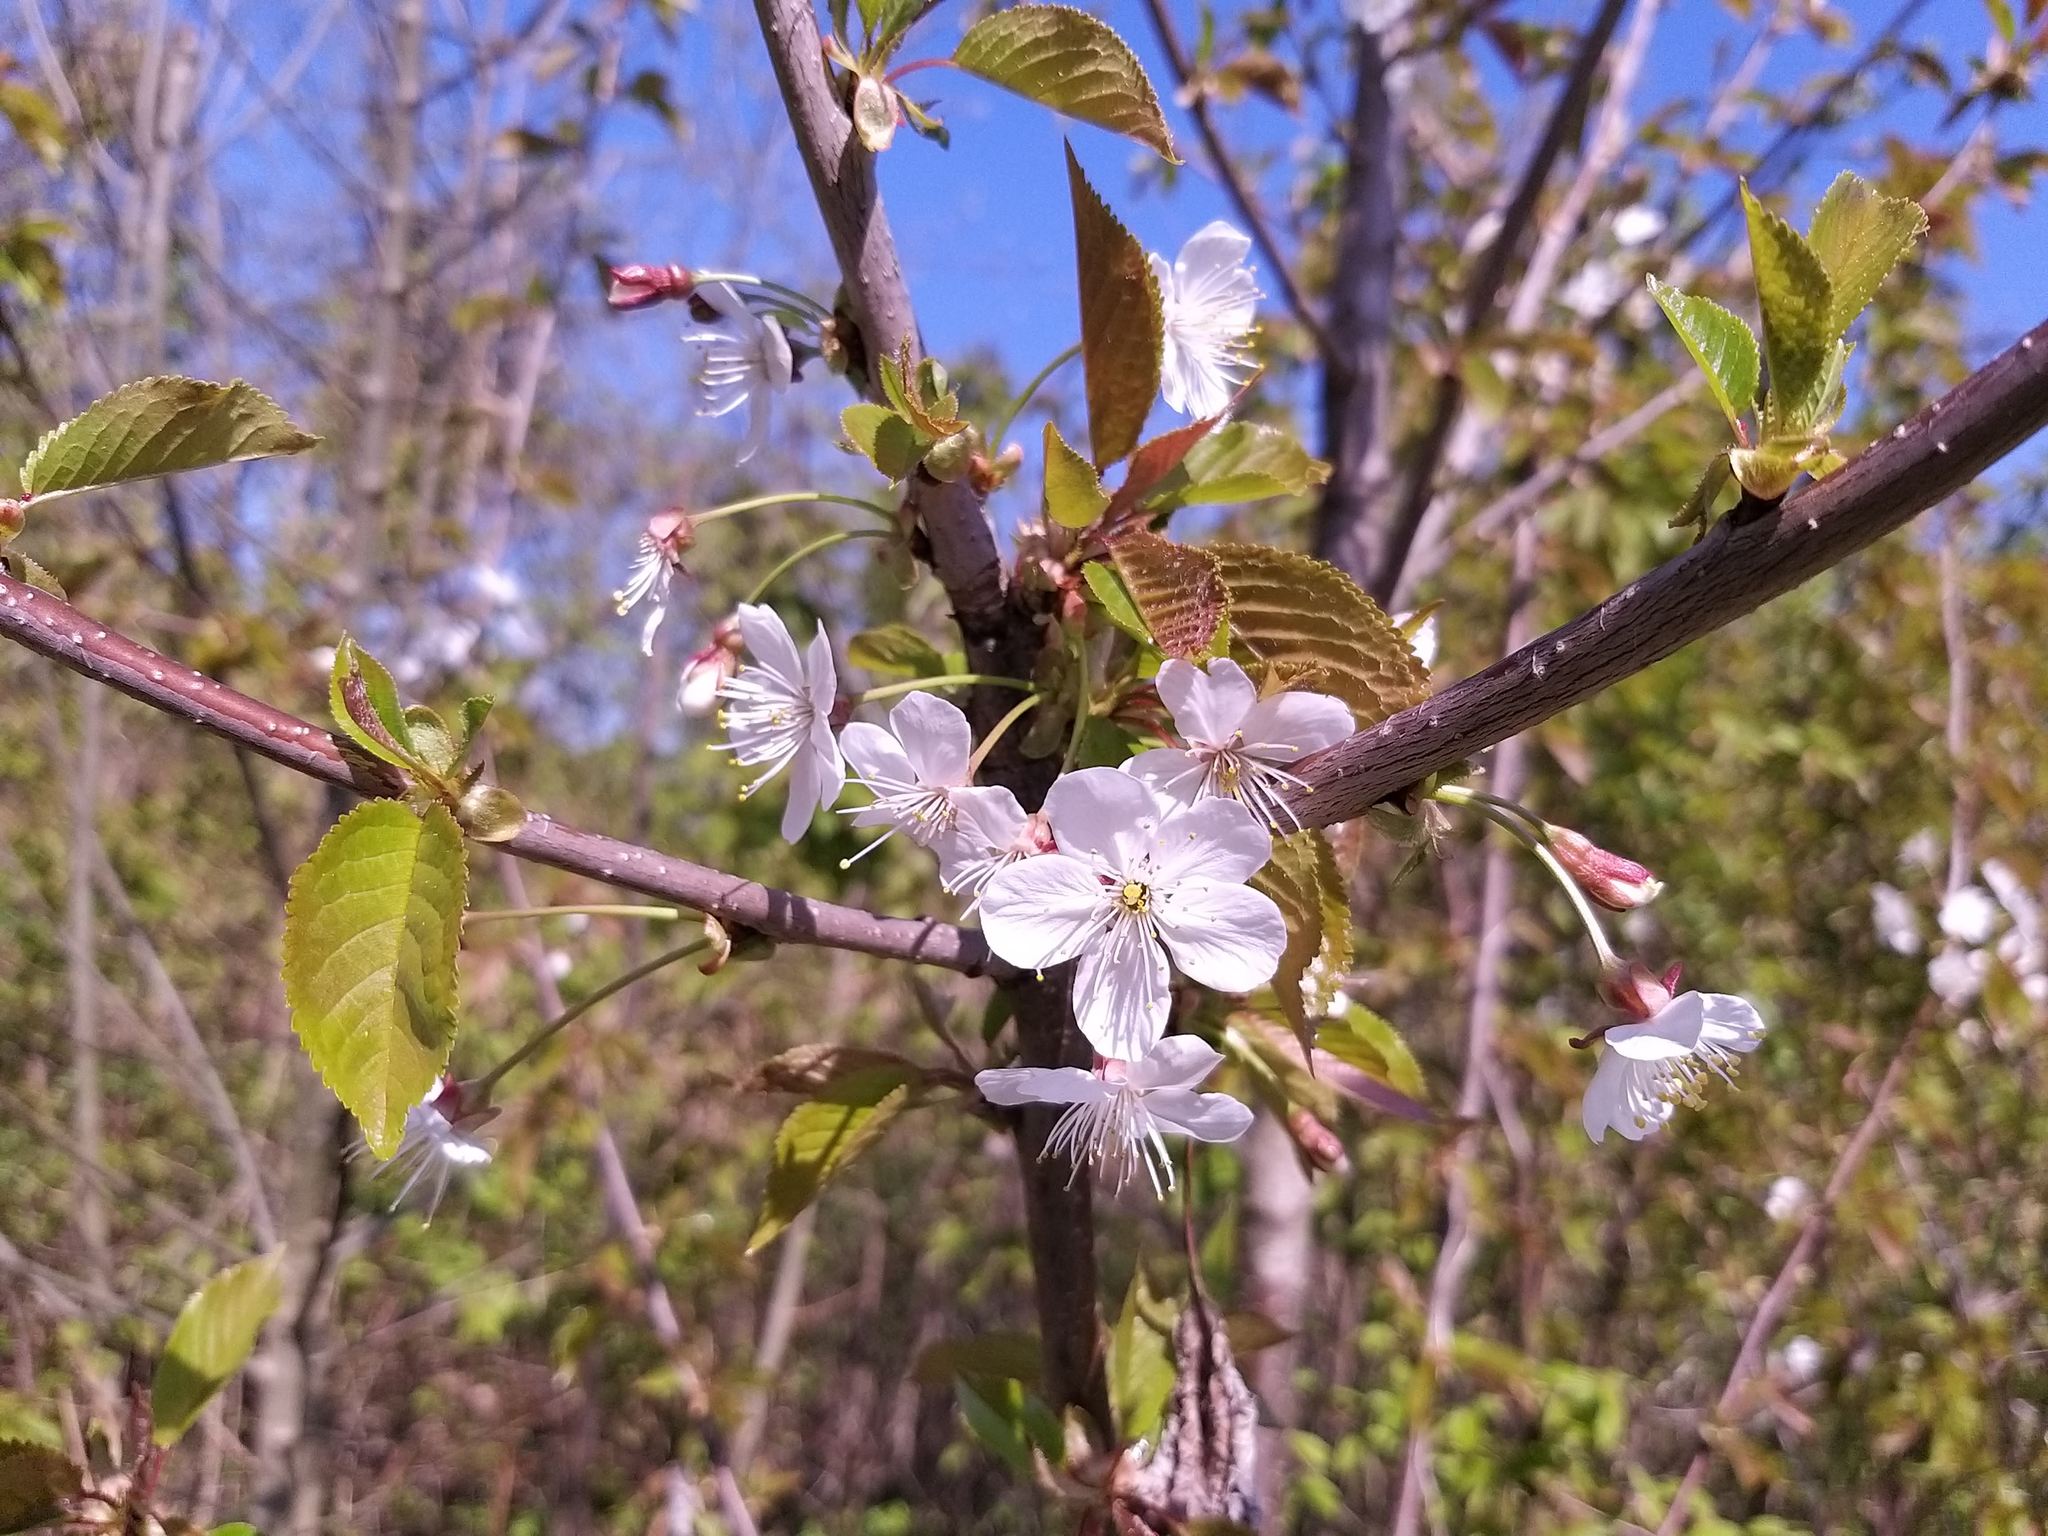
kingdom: Plantae
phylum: Tracheophyta
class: Magnoliopsida
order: Rosales
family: Rosaceae
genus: Prunus
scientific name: Prunus avium
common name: Sweet cherry
